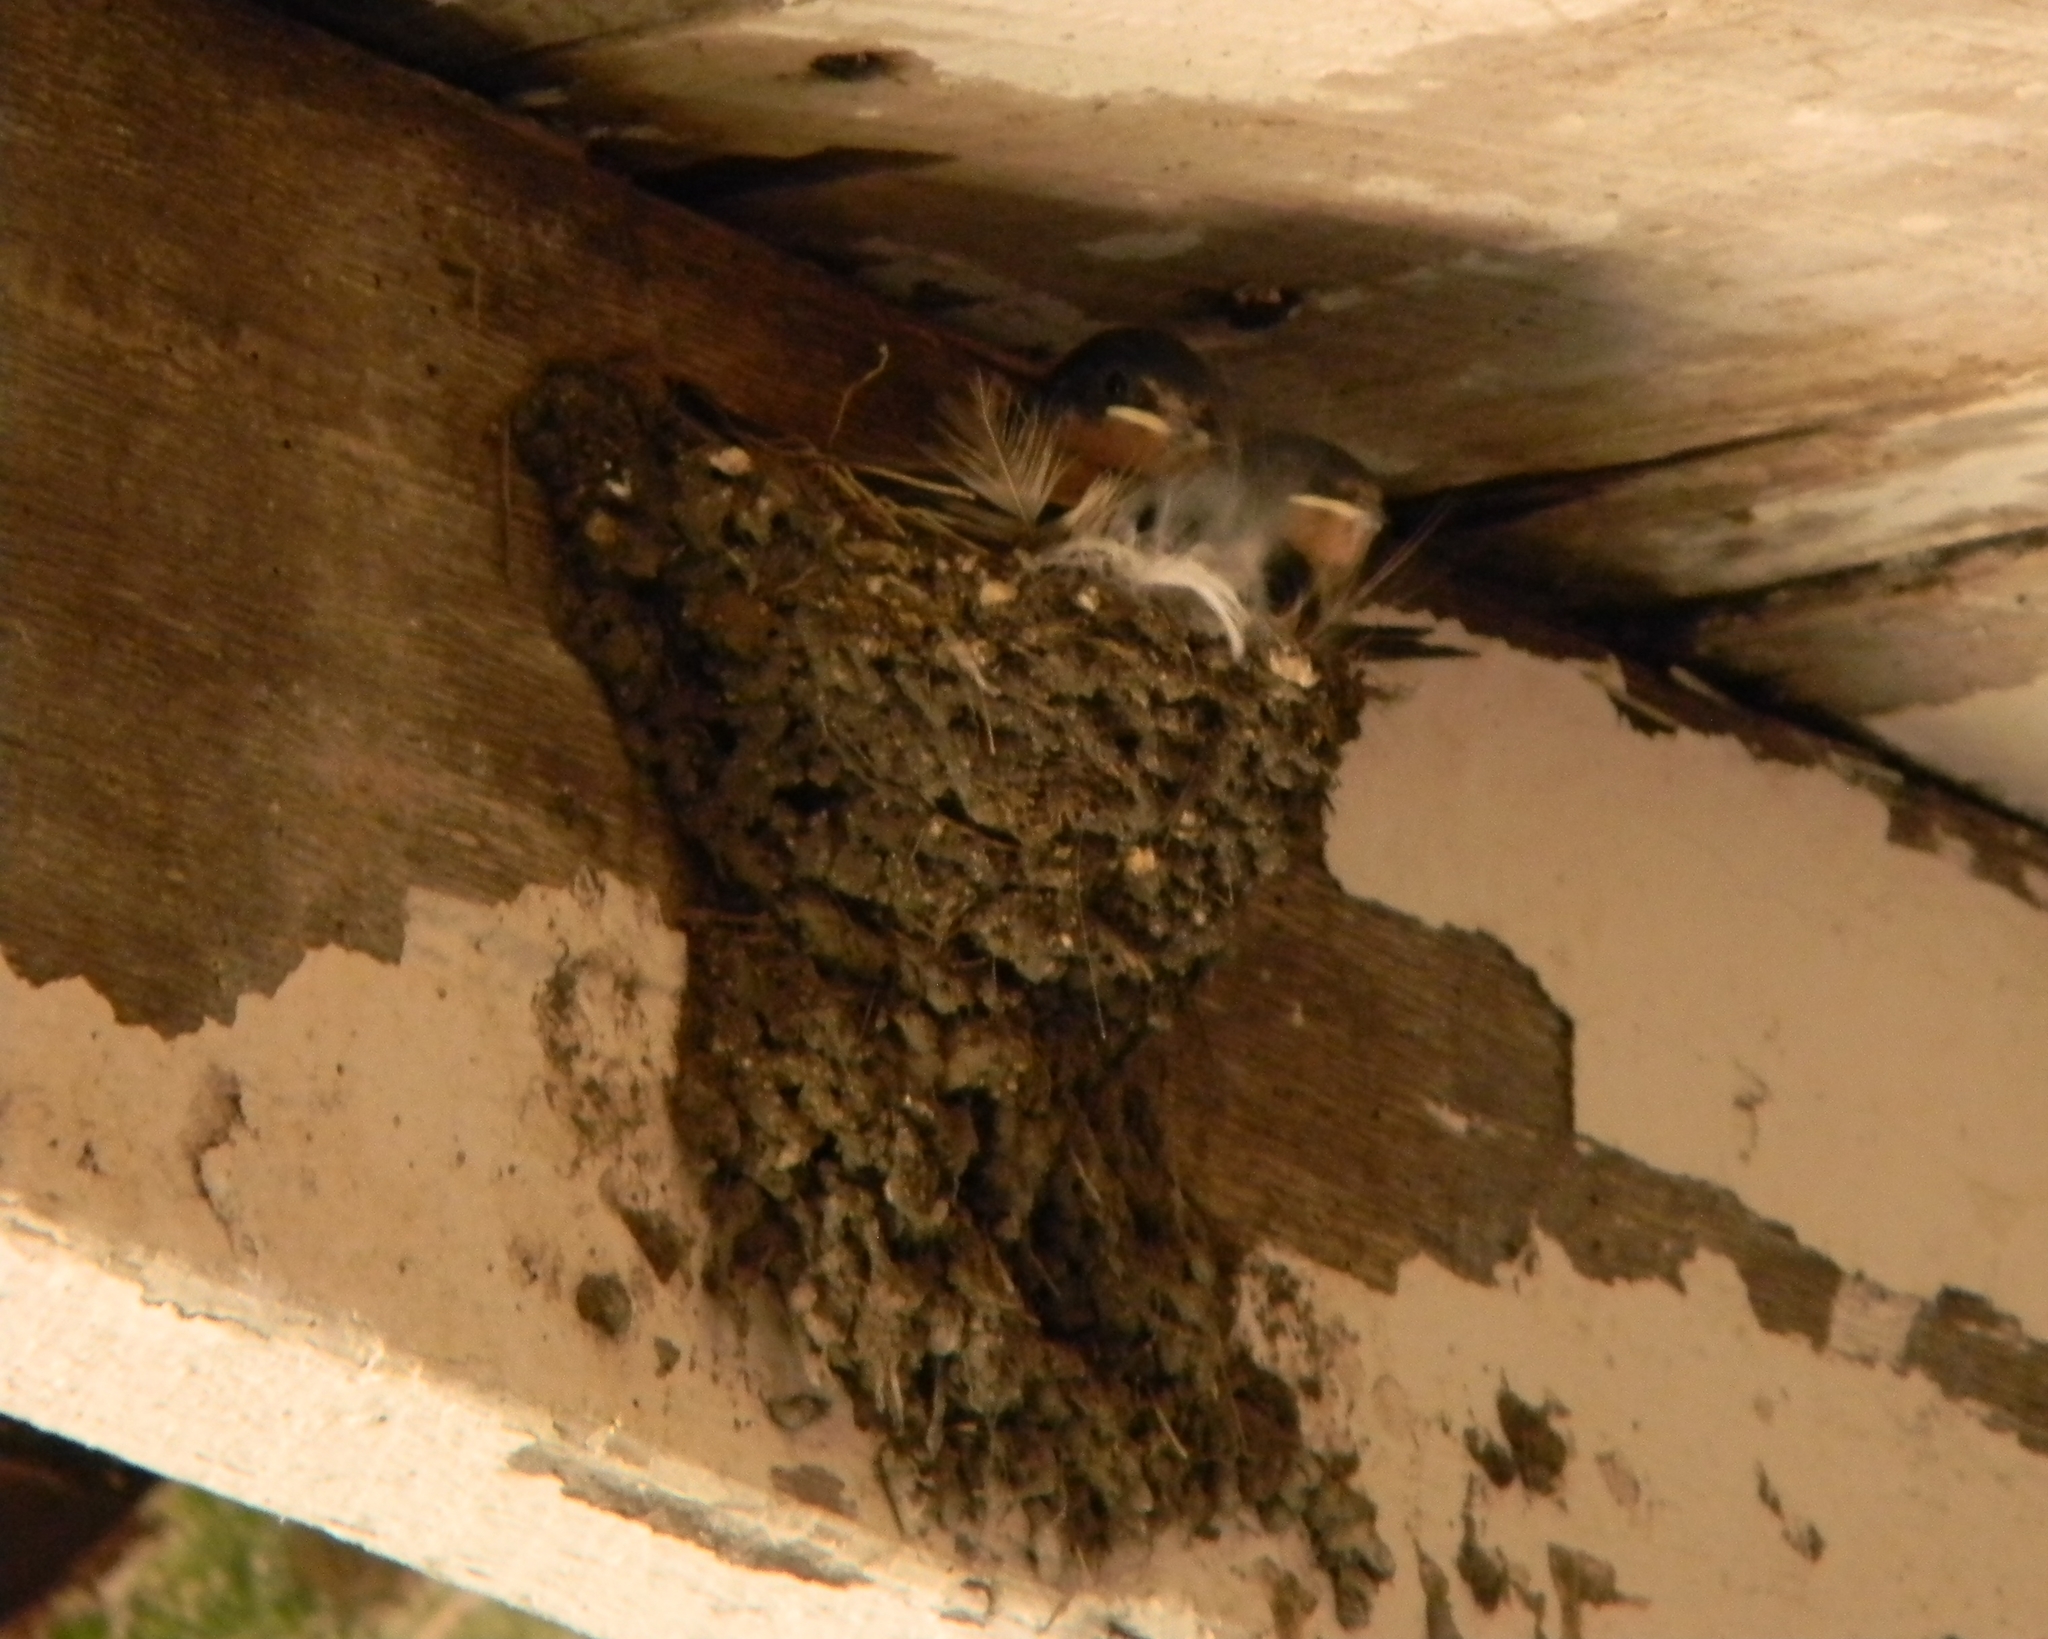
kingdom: Animalia
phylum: Chordata
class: Aves
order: Passeriformes
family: Hirundinidae
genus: Hirundo
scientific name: Hirundo rustica
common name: Barn swallow
